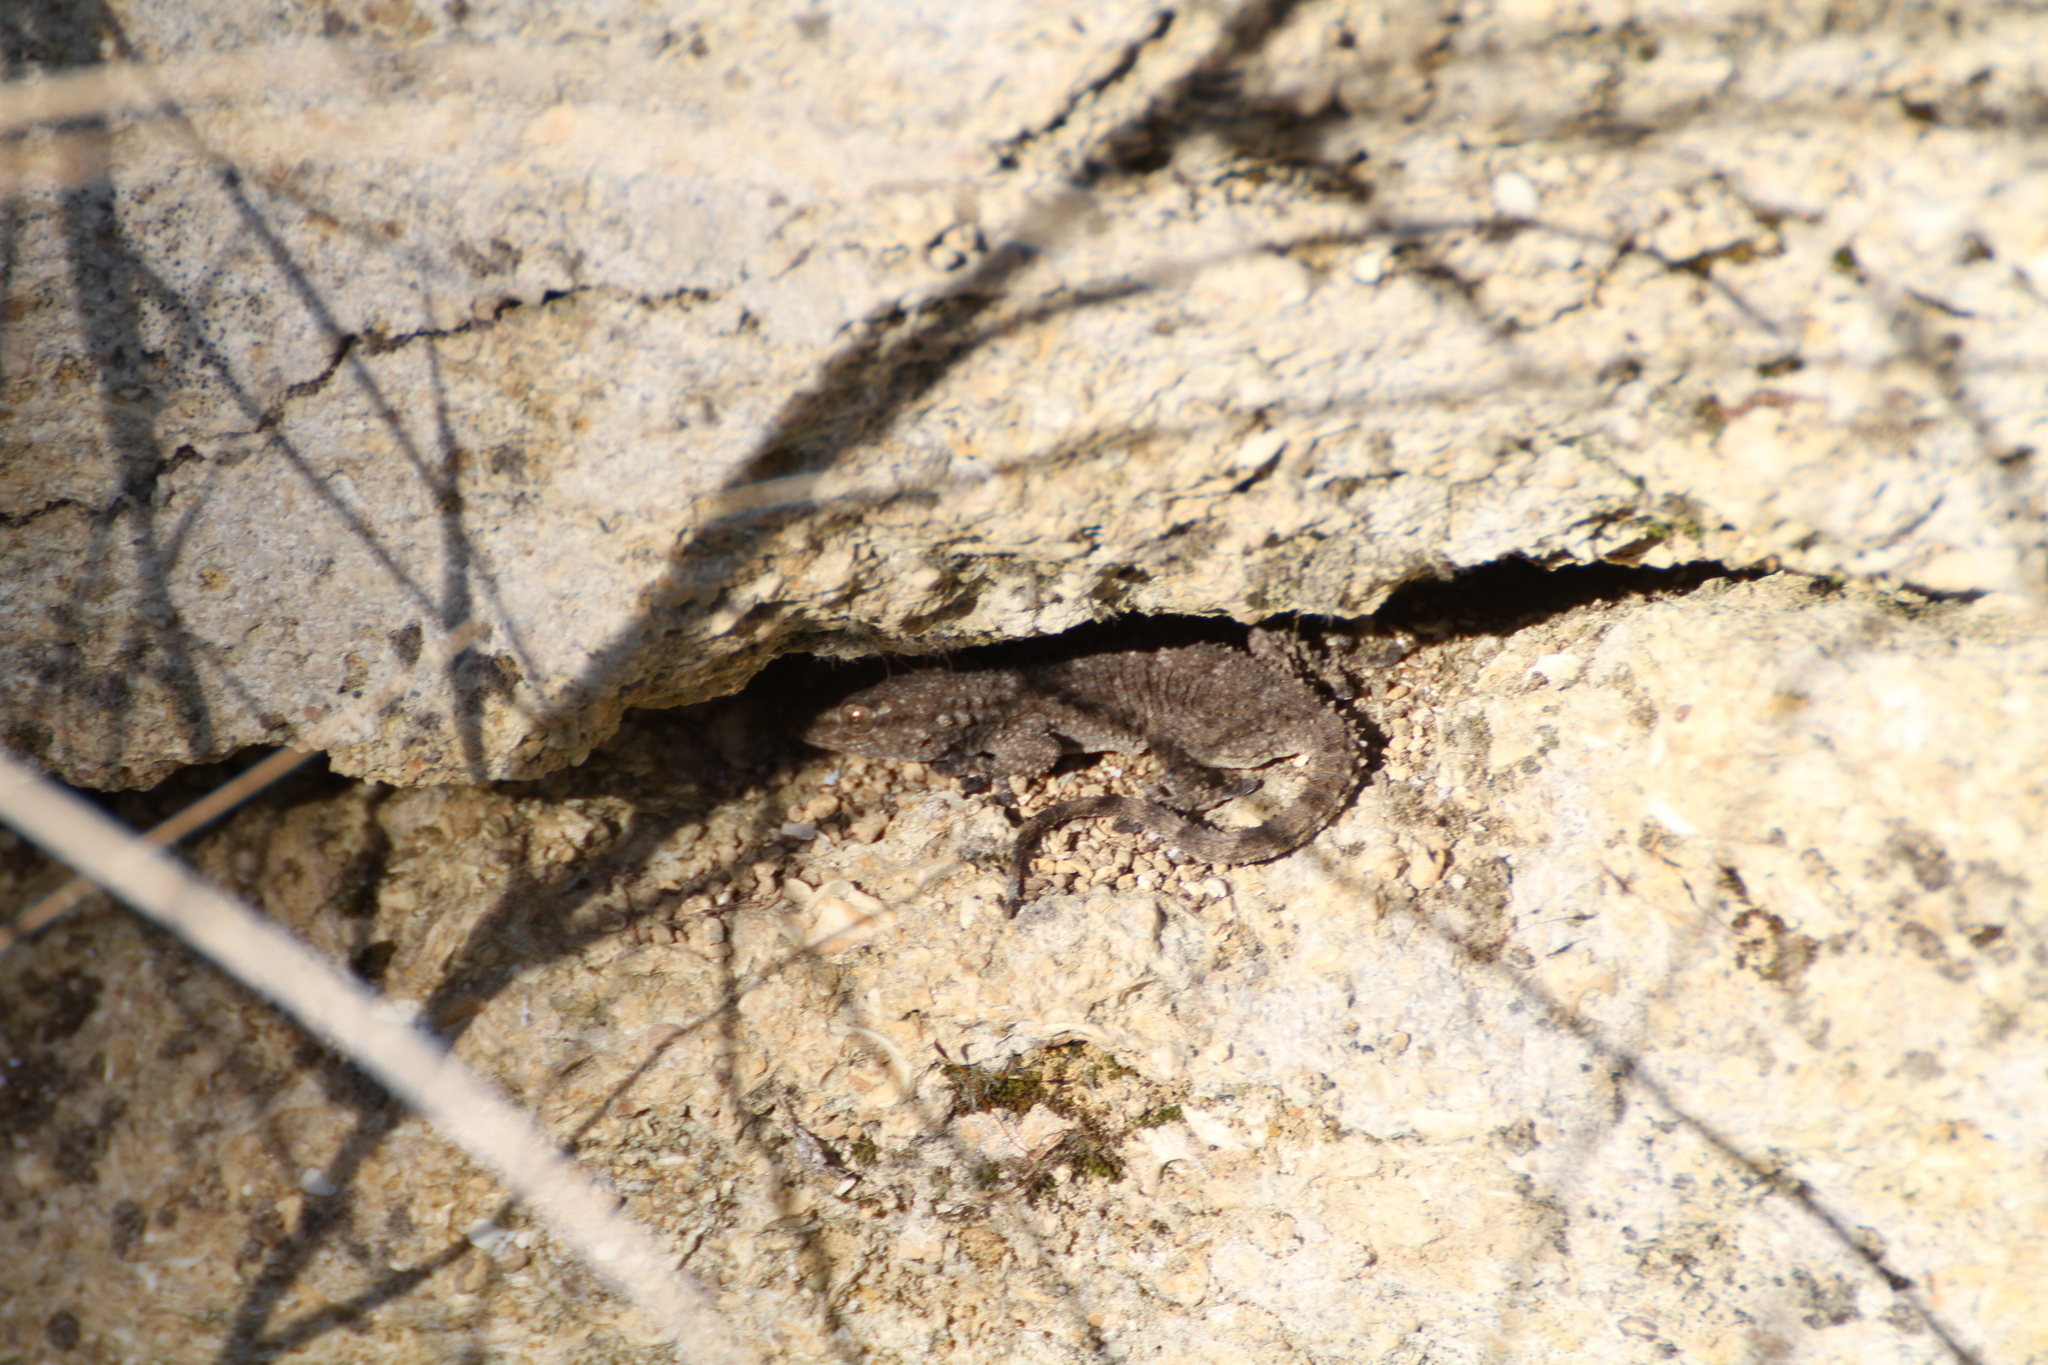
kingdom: Animalia
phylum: Chordata
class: Squamata
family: Phyllodactylidae
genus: Tarentola
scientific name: Tarentola mauritanica
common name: Moorish gecko
